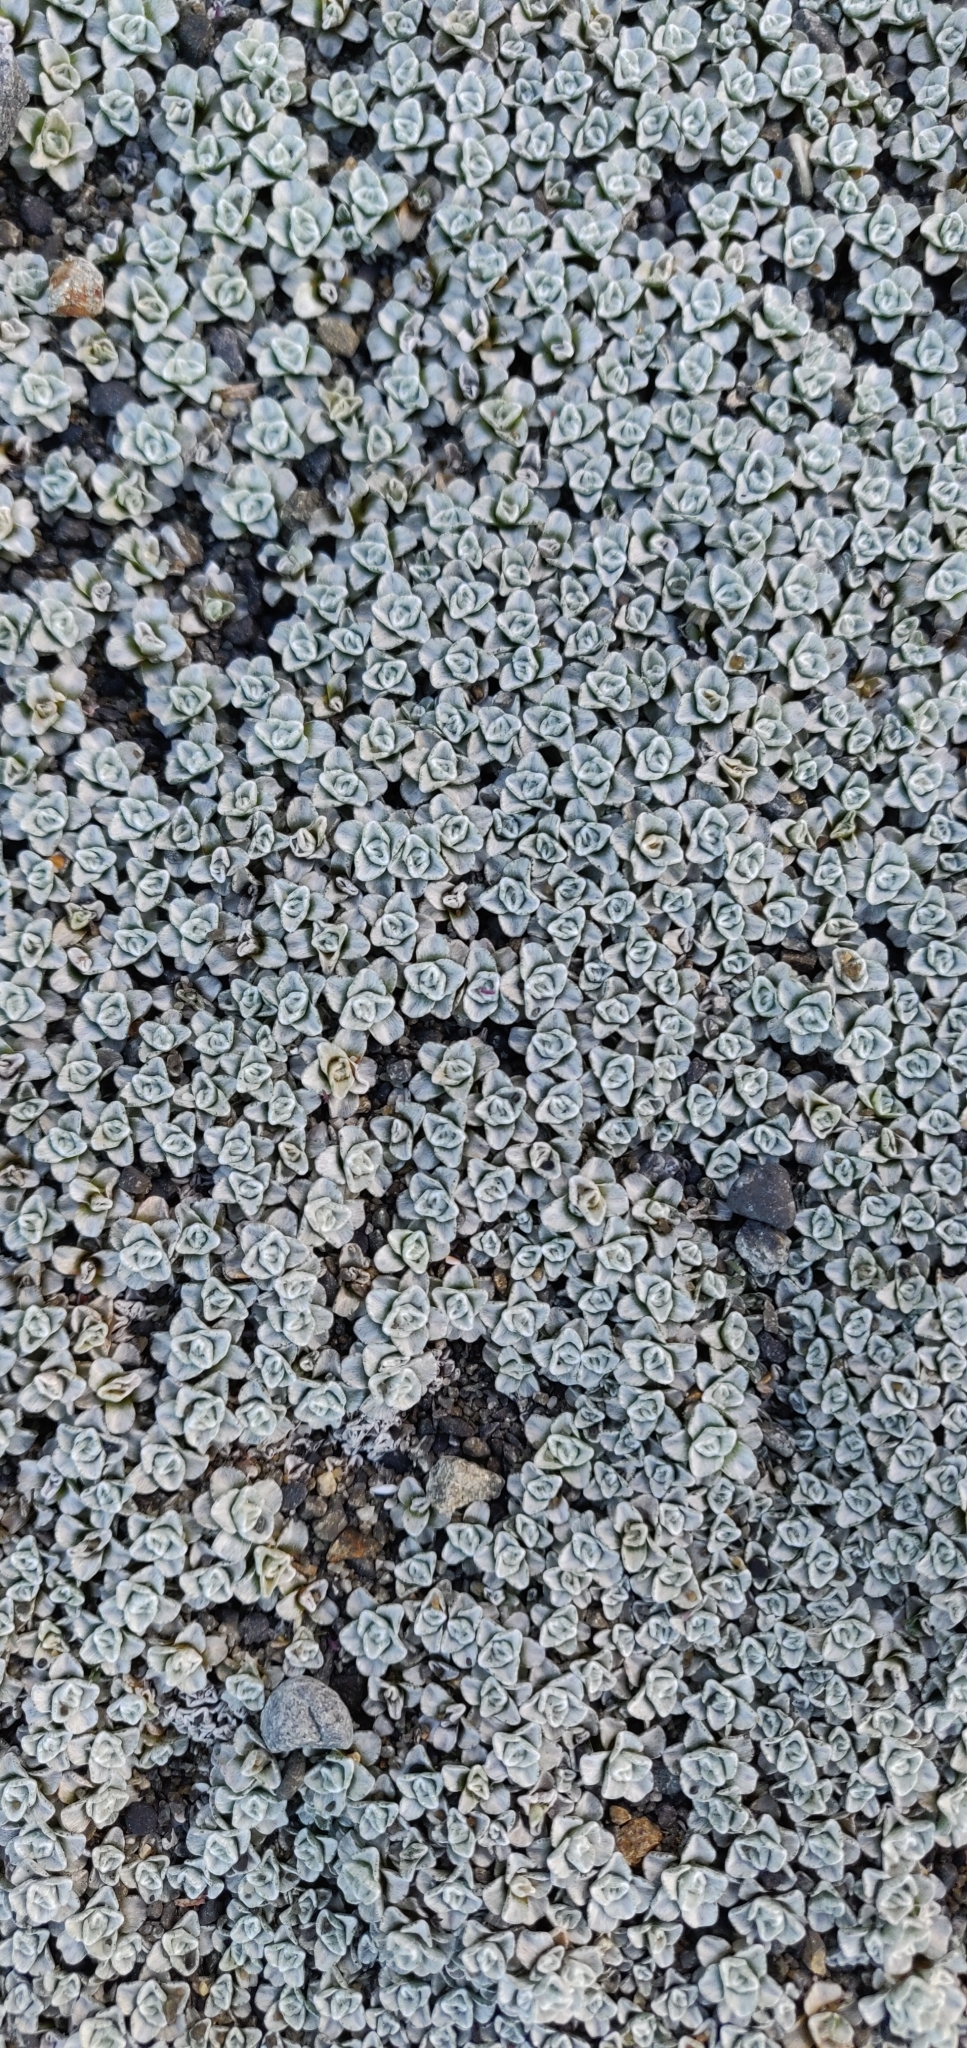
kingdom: Plantae
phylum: Tracheophyta
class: Magnoliopsida
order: Asterales
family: Asteraceae
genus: Raoulia
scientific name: Raoulia hookeri
